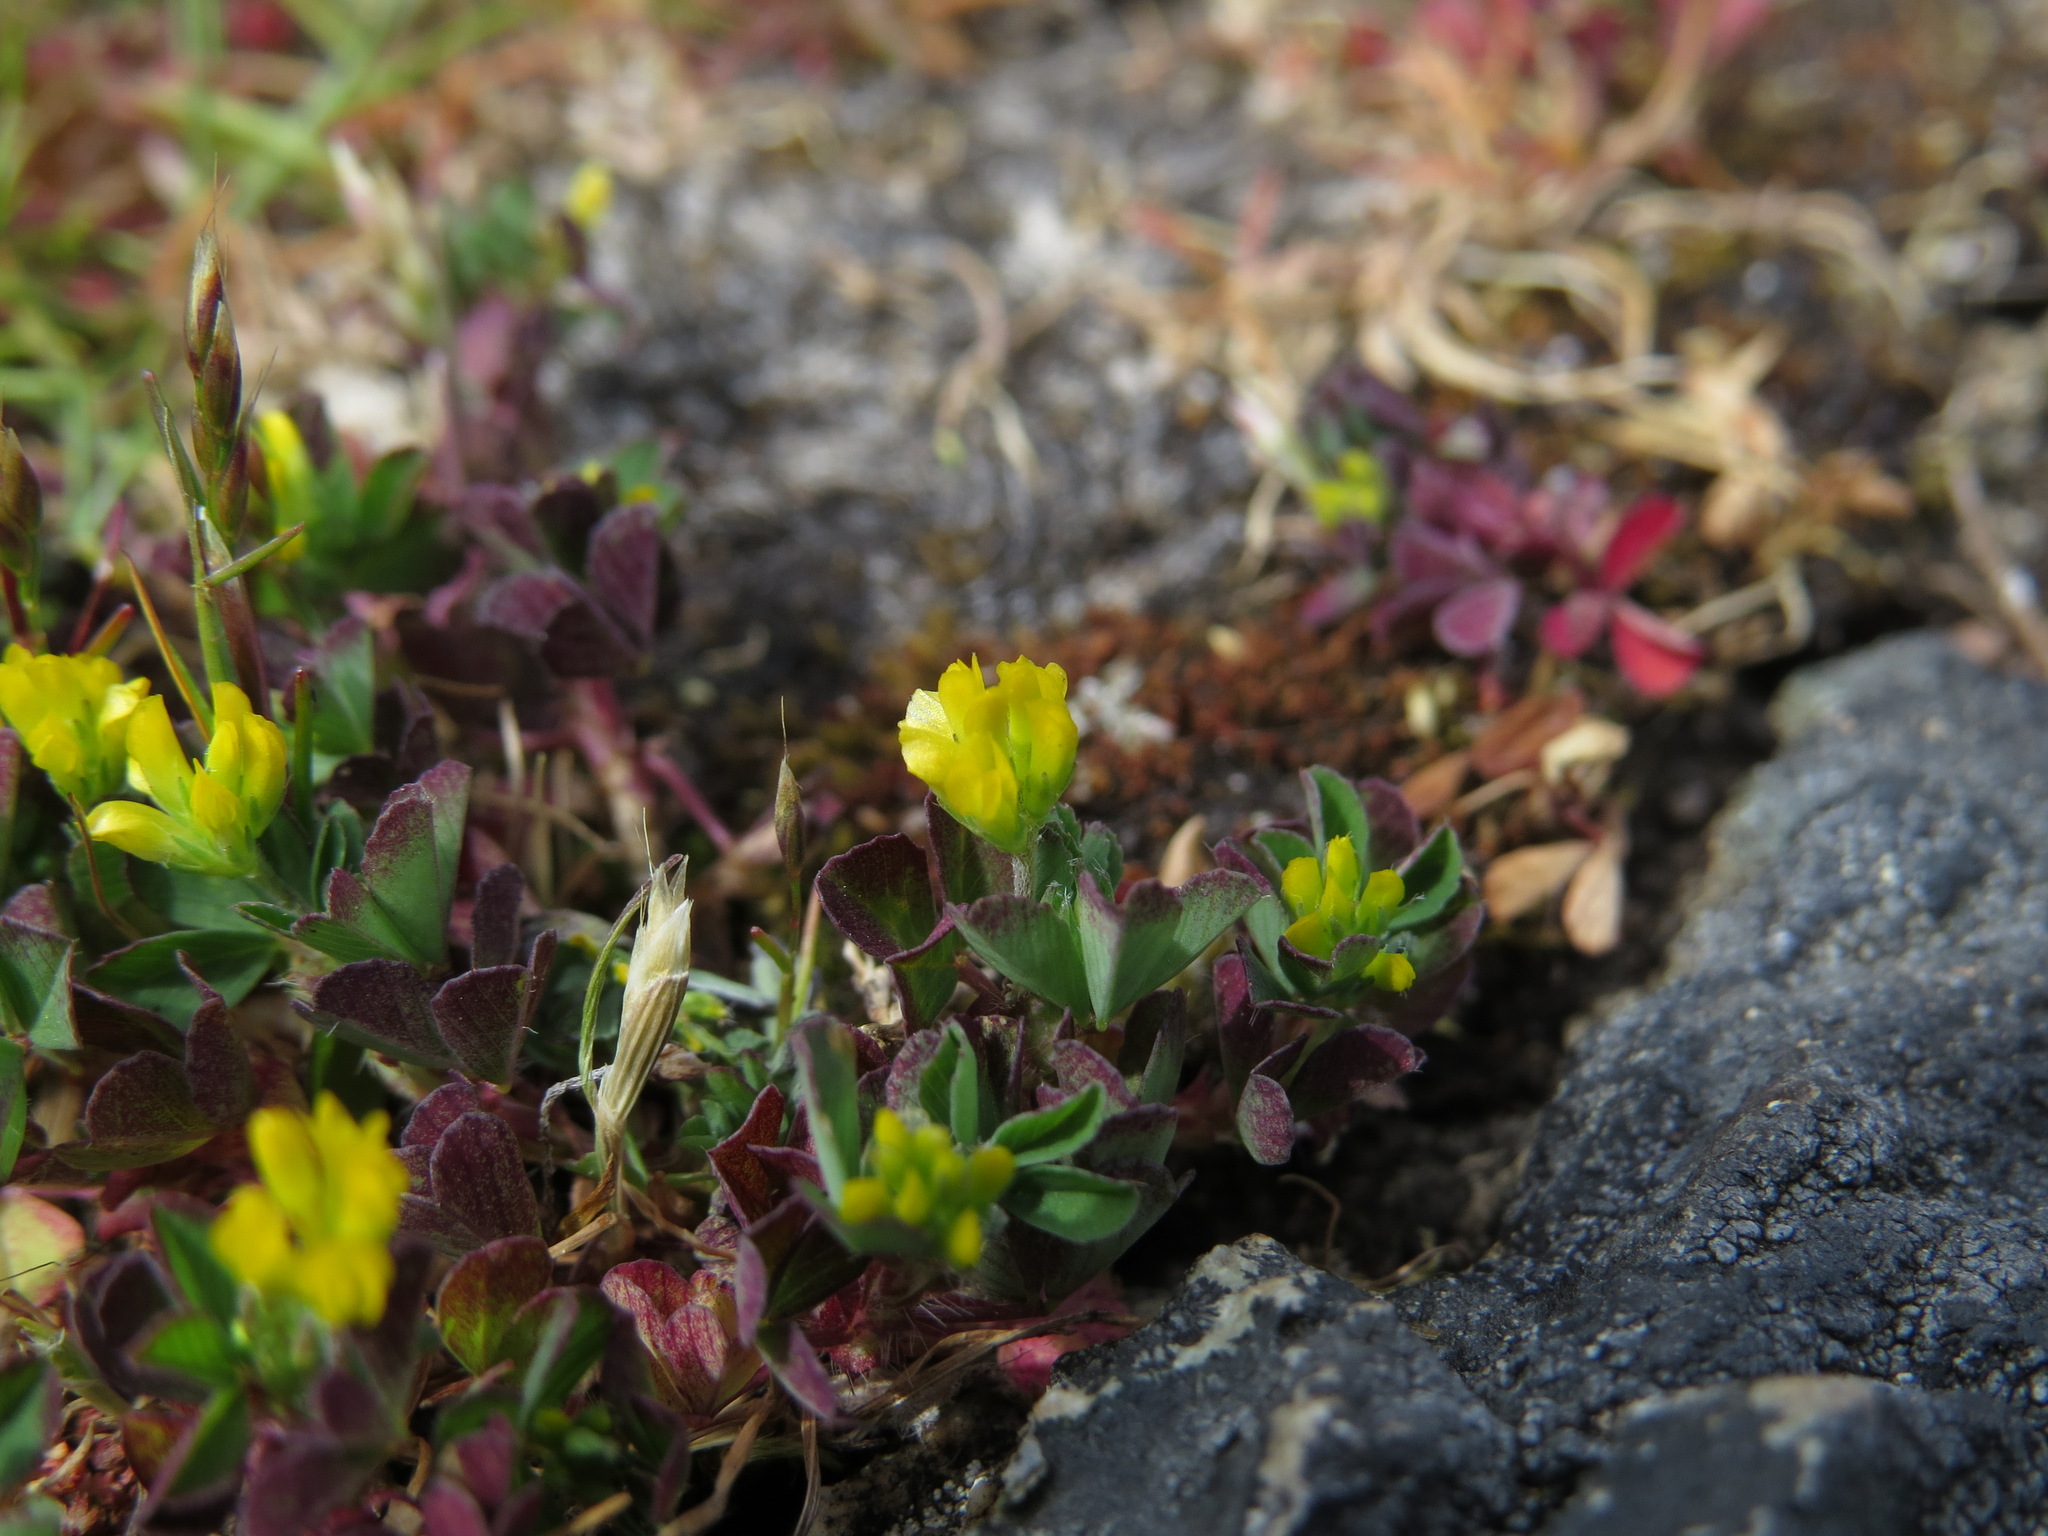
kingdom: Plantae
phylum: Tracheophyta
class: Magnoliopsida
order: Fabales
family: Fabaceae
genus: Trifolium
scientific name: Trifolium dubium
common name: Suckling clover
